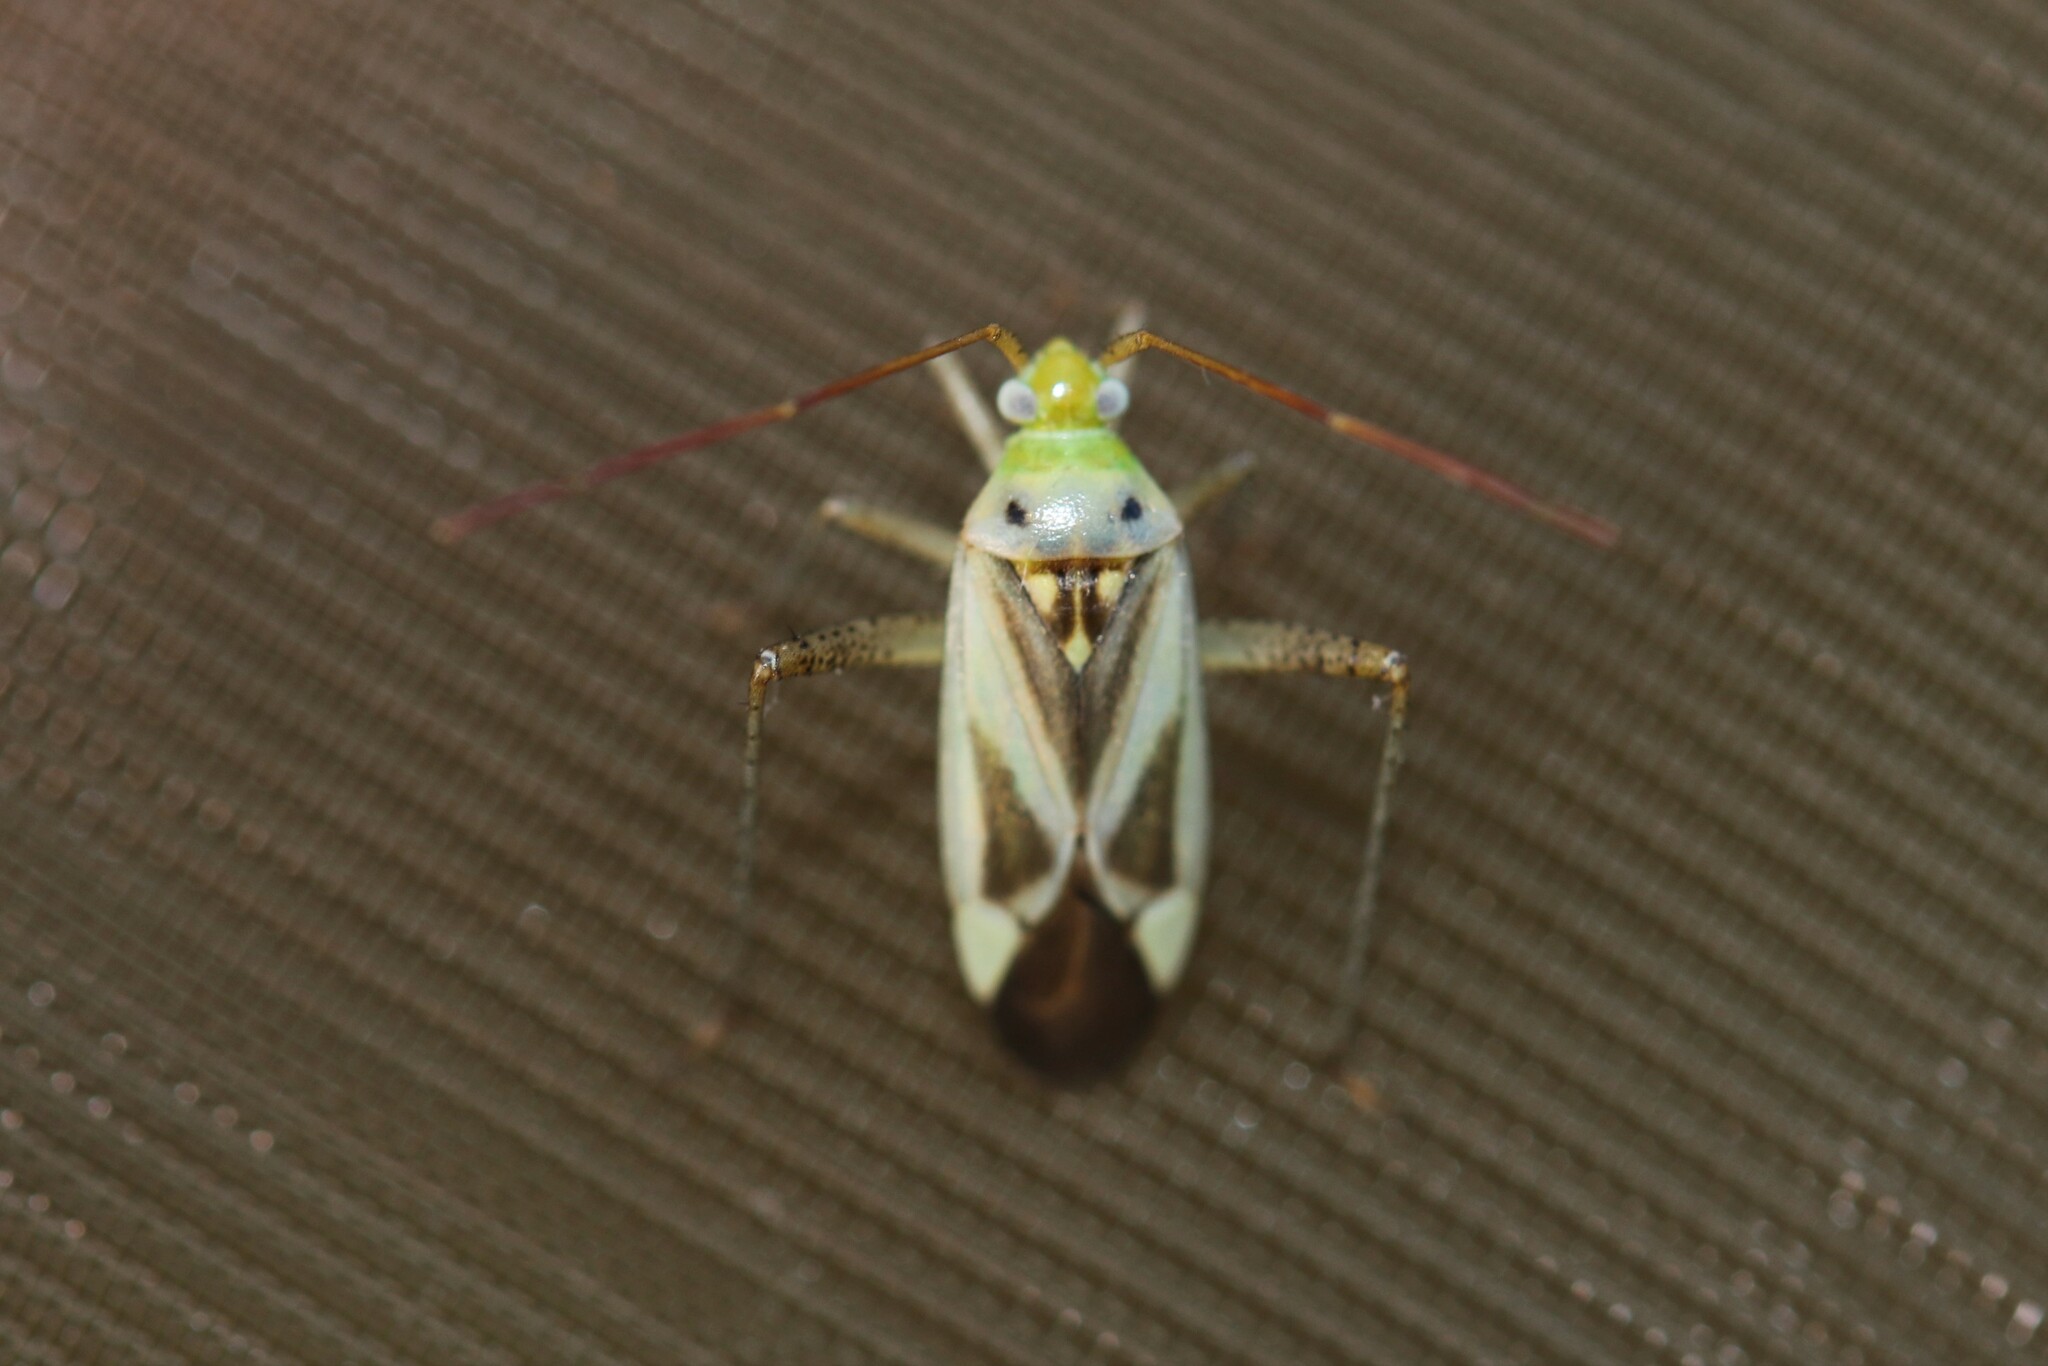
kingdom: Animalia
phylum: Arthropoda
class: Insecta
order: Hemiptera
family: Miridae
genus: Adelphocoris
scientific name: Adelphocoris lineolatus
